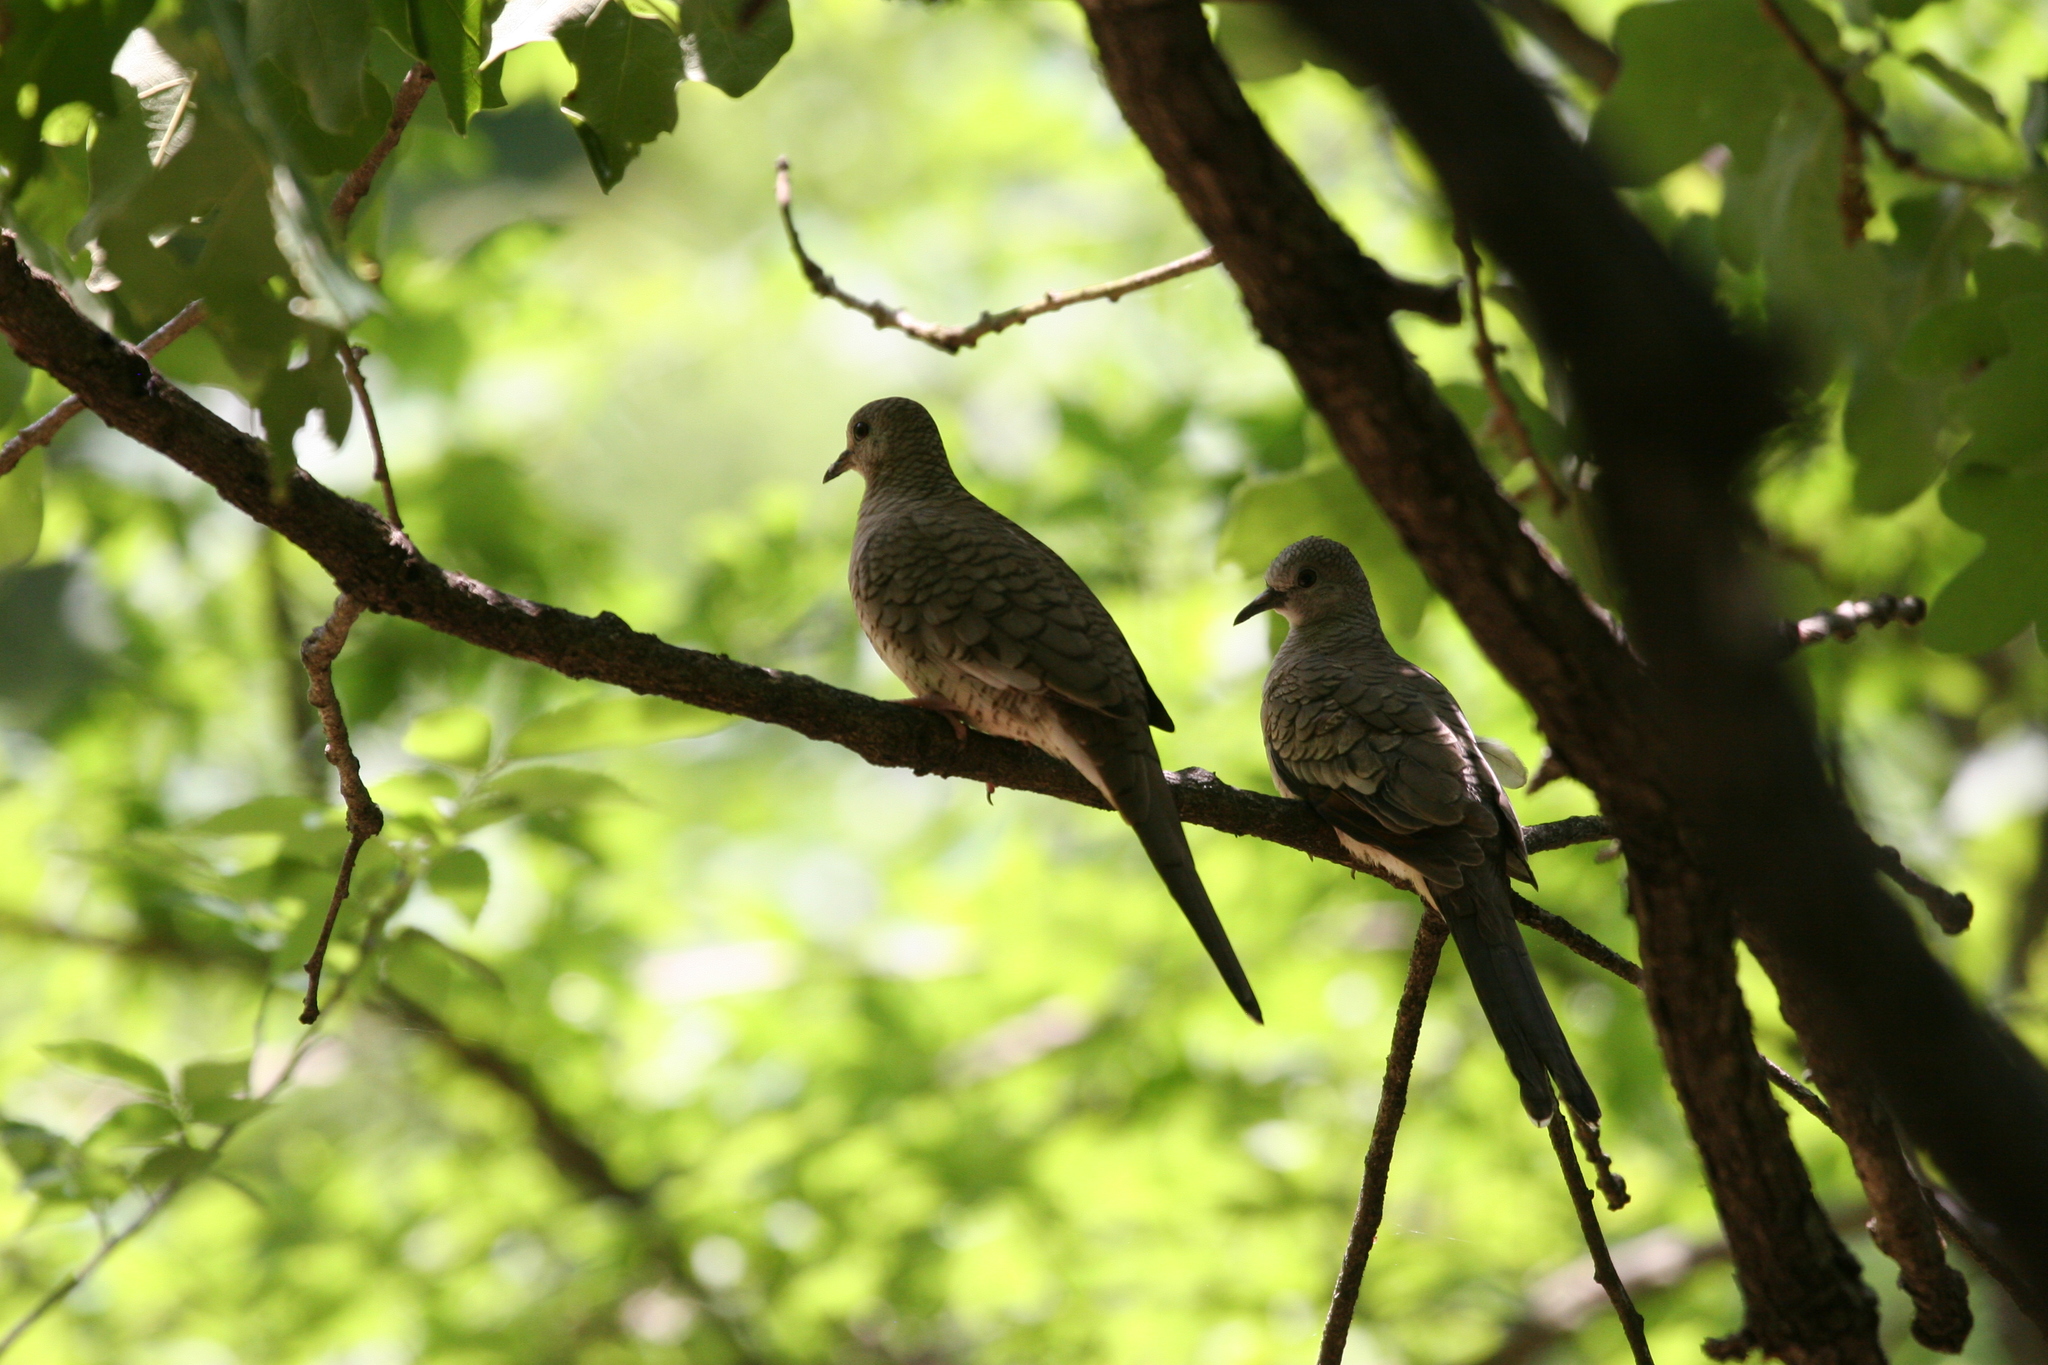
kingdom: Animalia
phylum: Chordata
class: Aves
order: Columbiformes
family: Columbidae
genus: Columbina
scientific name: Columbina inca
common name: Inca dove
